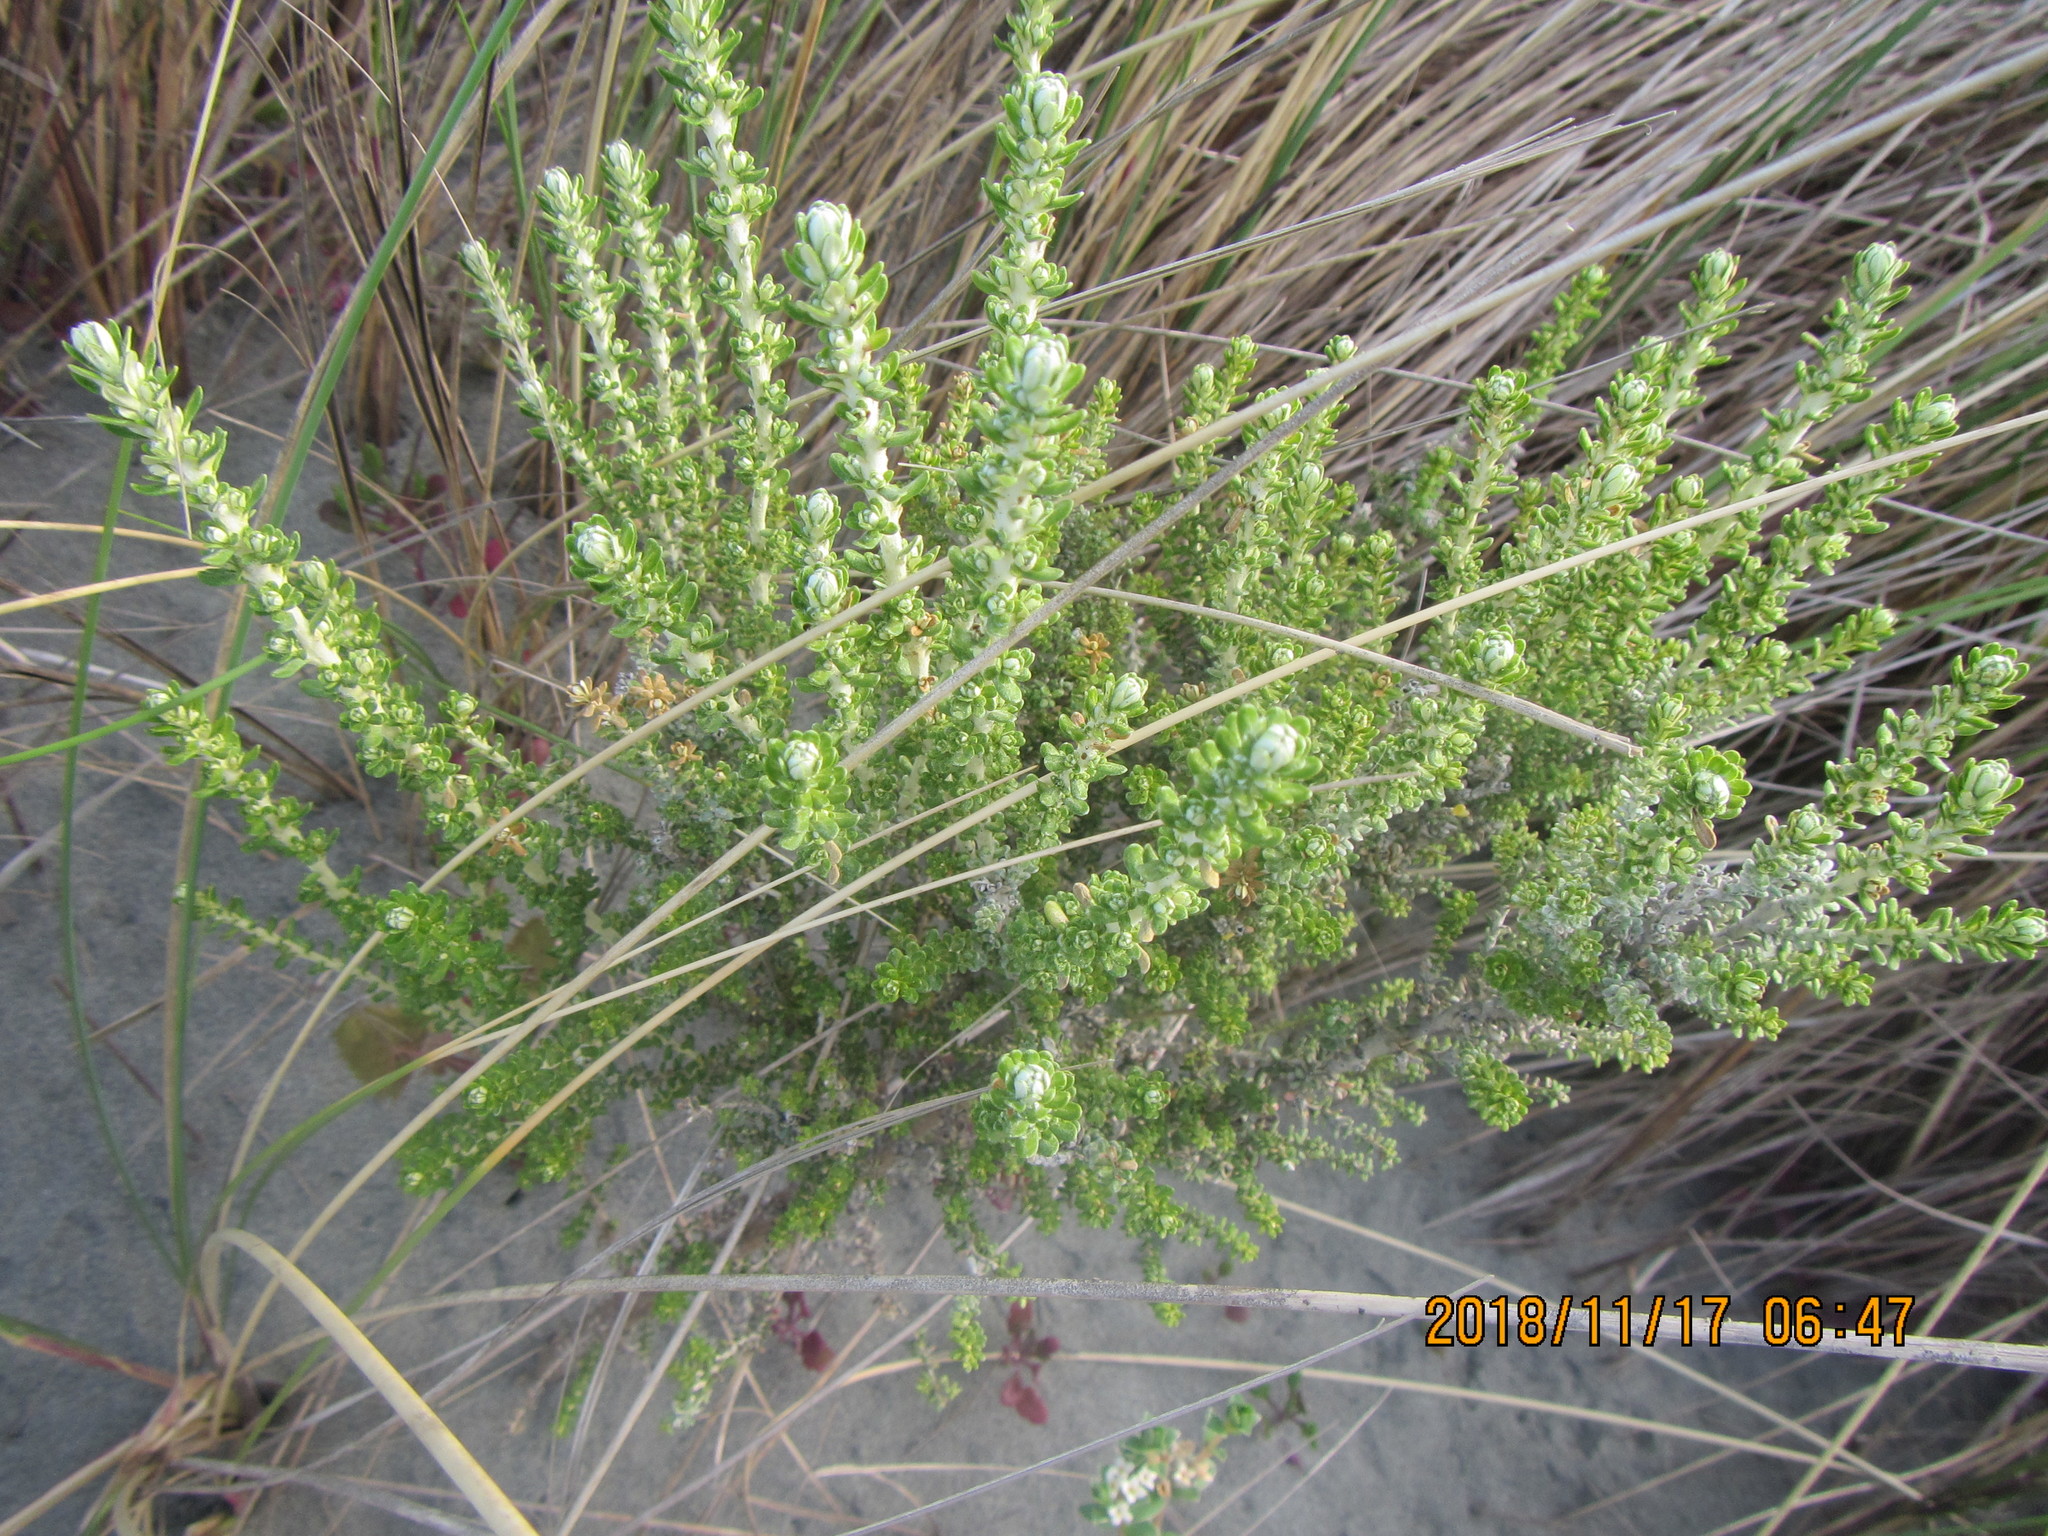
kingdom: Plantae
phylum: Tracheophyta
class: Magnoliopsida
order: Asterales
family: Asteraceae
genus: Ozothamnus
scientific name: Ozothamnus leptophyllus
